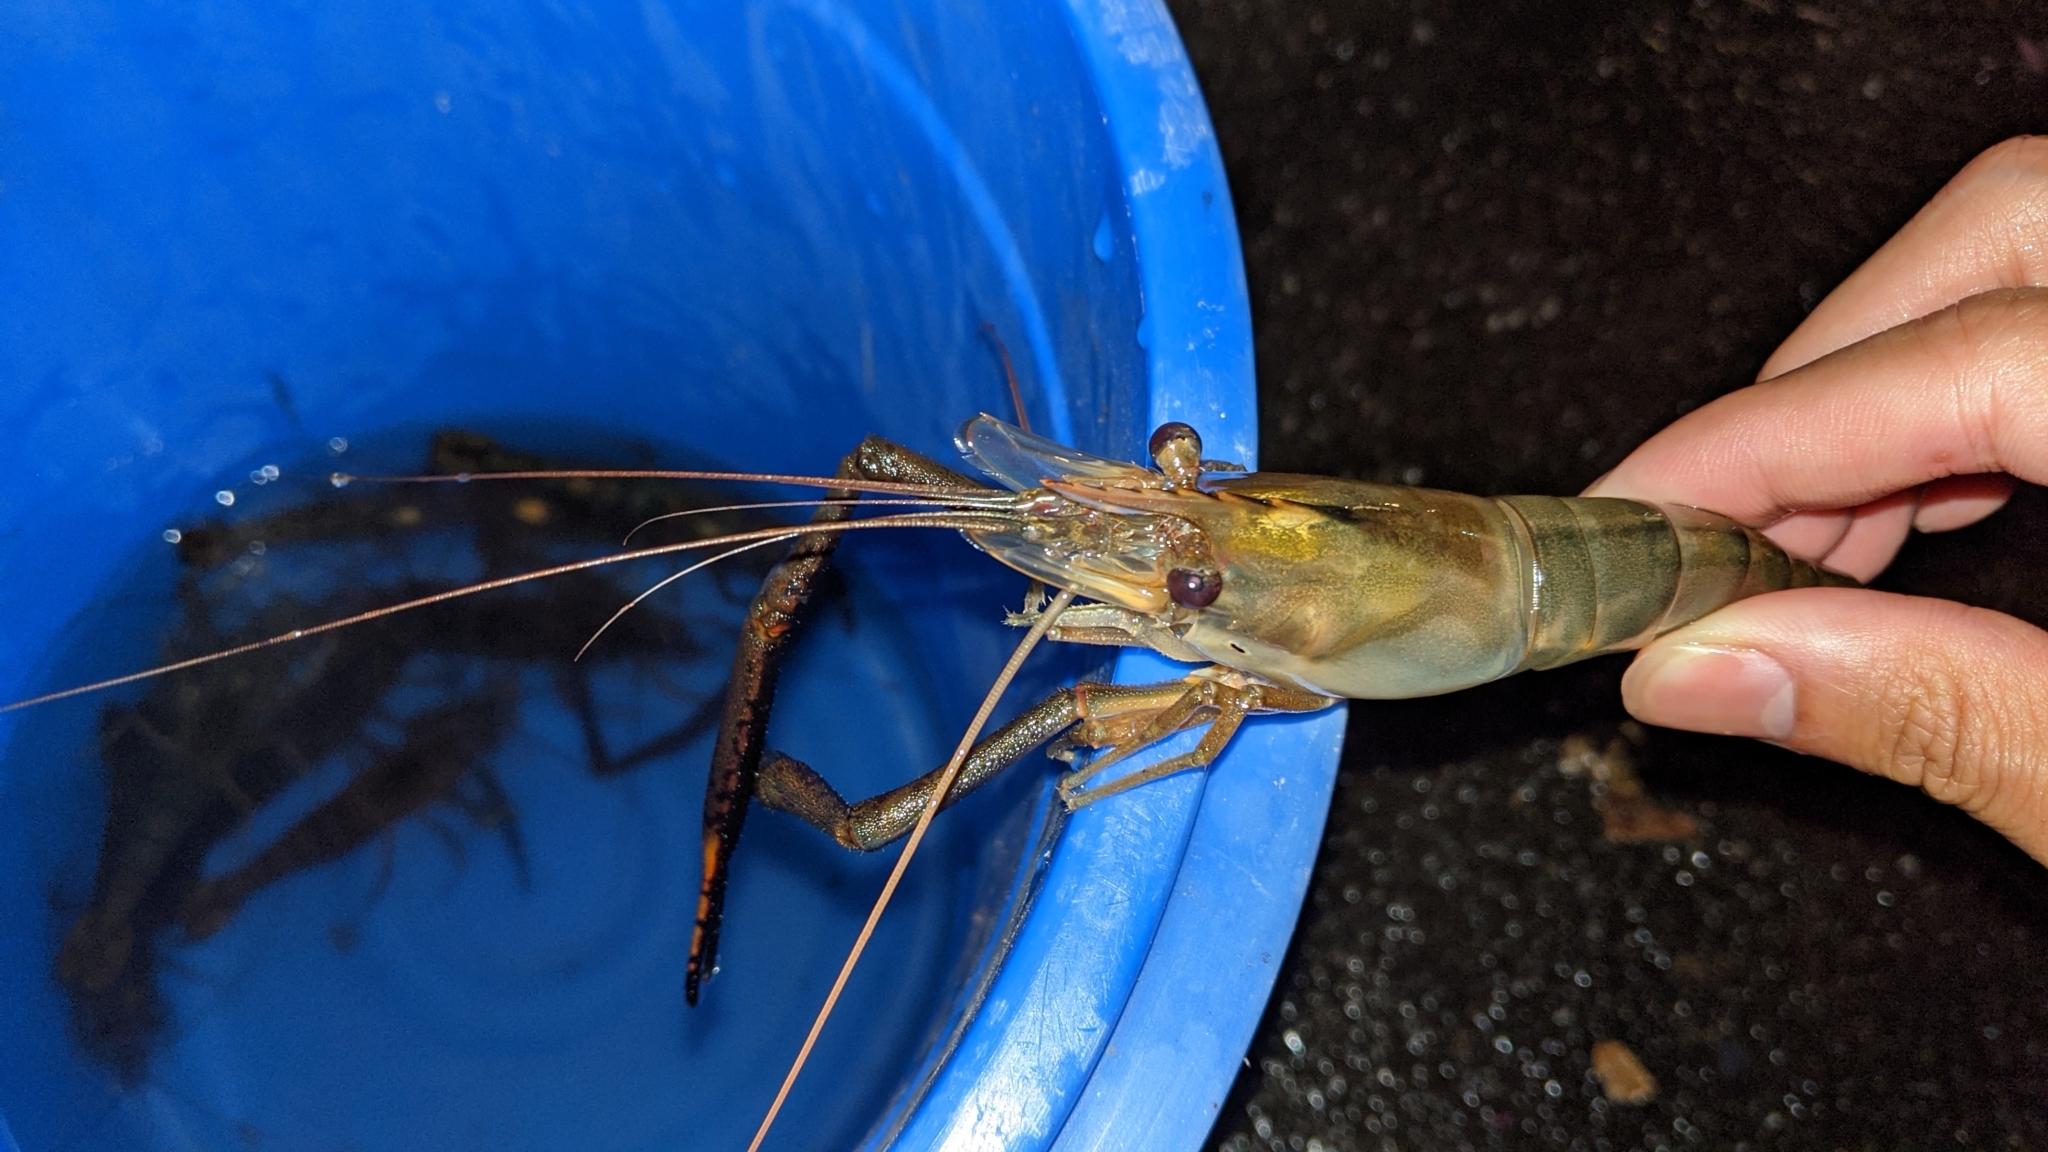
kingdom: Animalia
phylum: Arthropoda
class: Malacostraca
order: Decapoda
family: Palaemonidae
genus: Macrobrachium
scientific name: Macrobrachium lar
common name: Monkey river prawn
